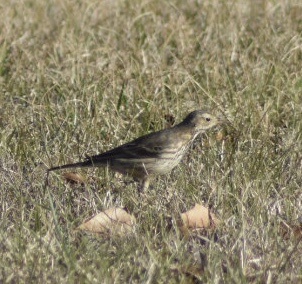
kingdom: Animalia
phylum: Chordata
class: Aves
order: Passeriformes
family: Motacillidae
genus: Anthus
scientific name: Anthus rubescens
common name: Buff-bellied pipit
